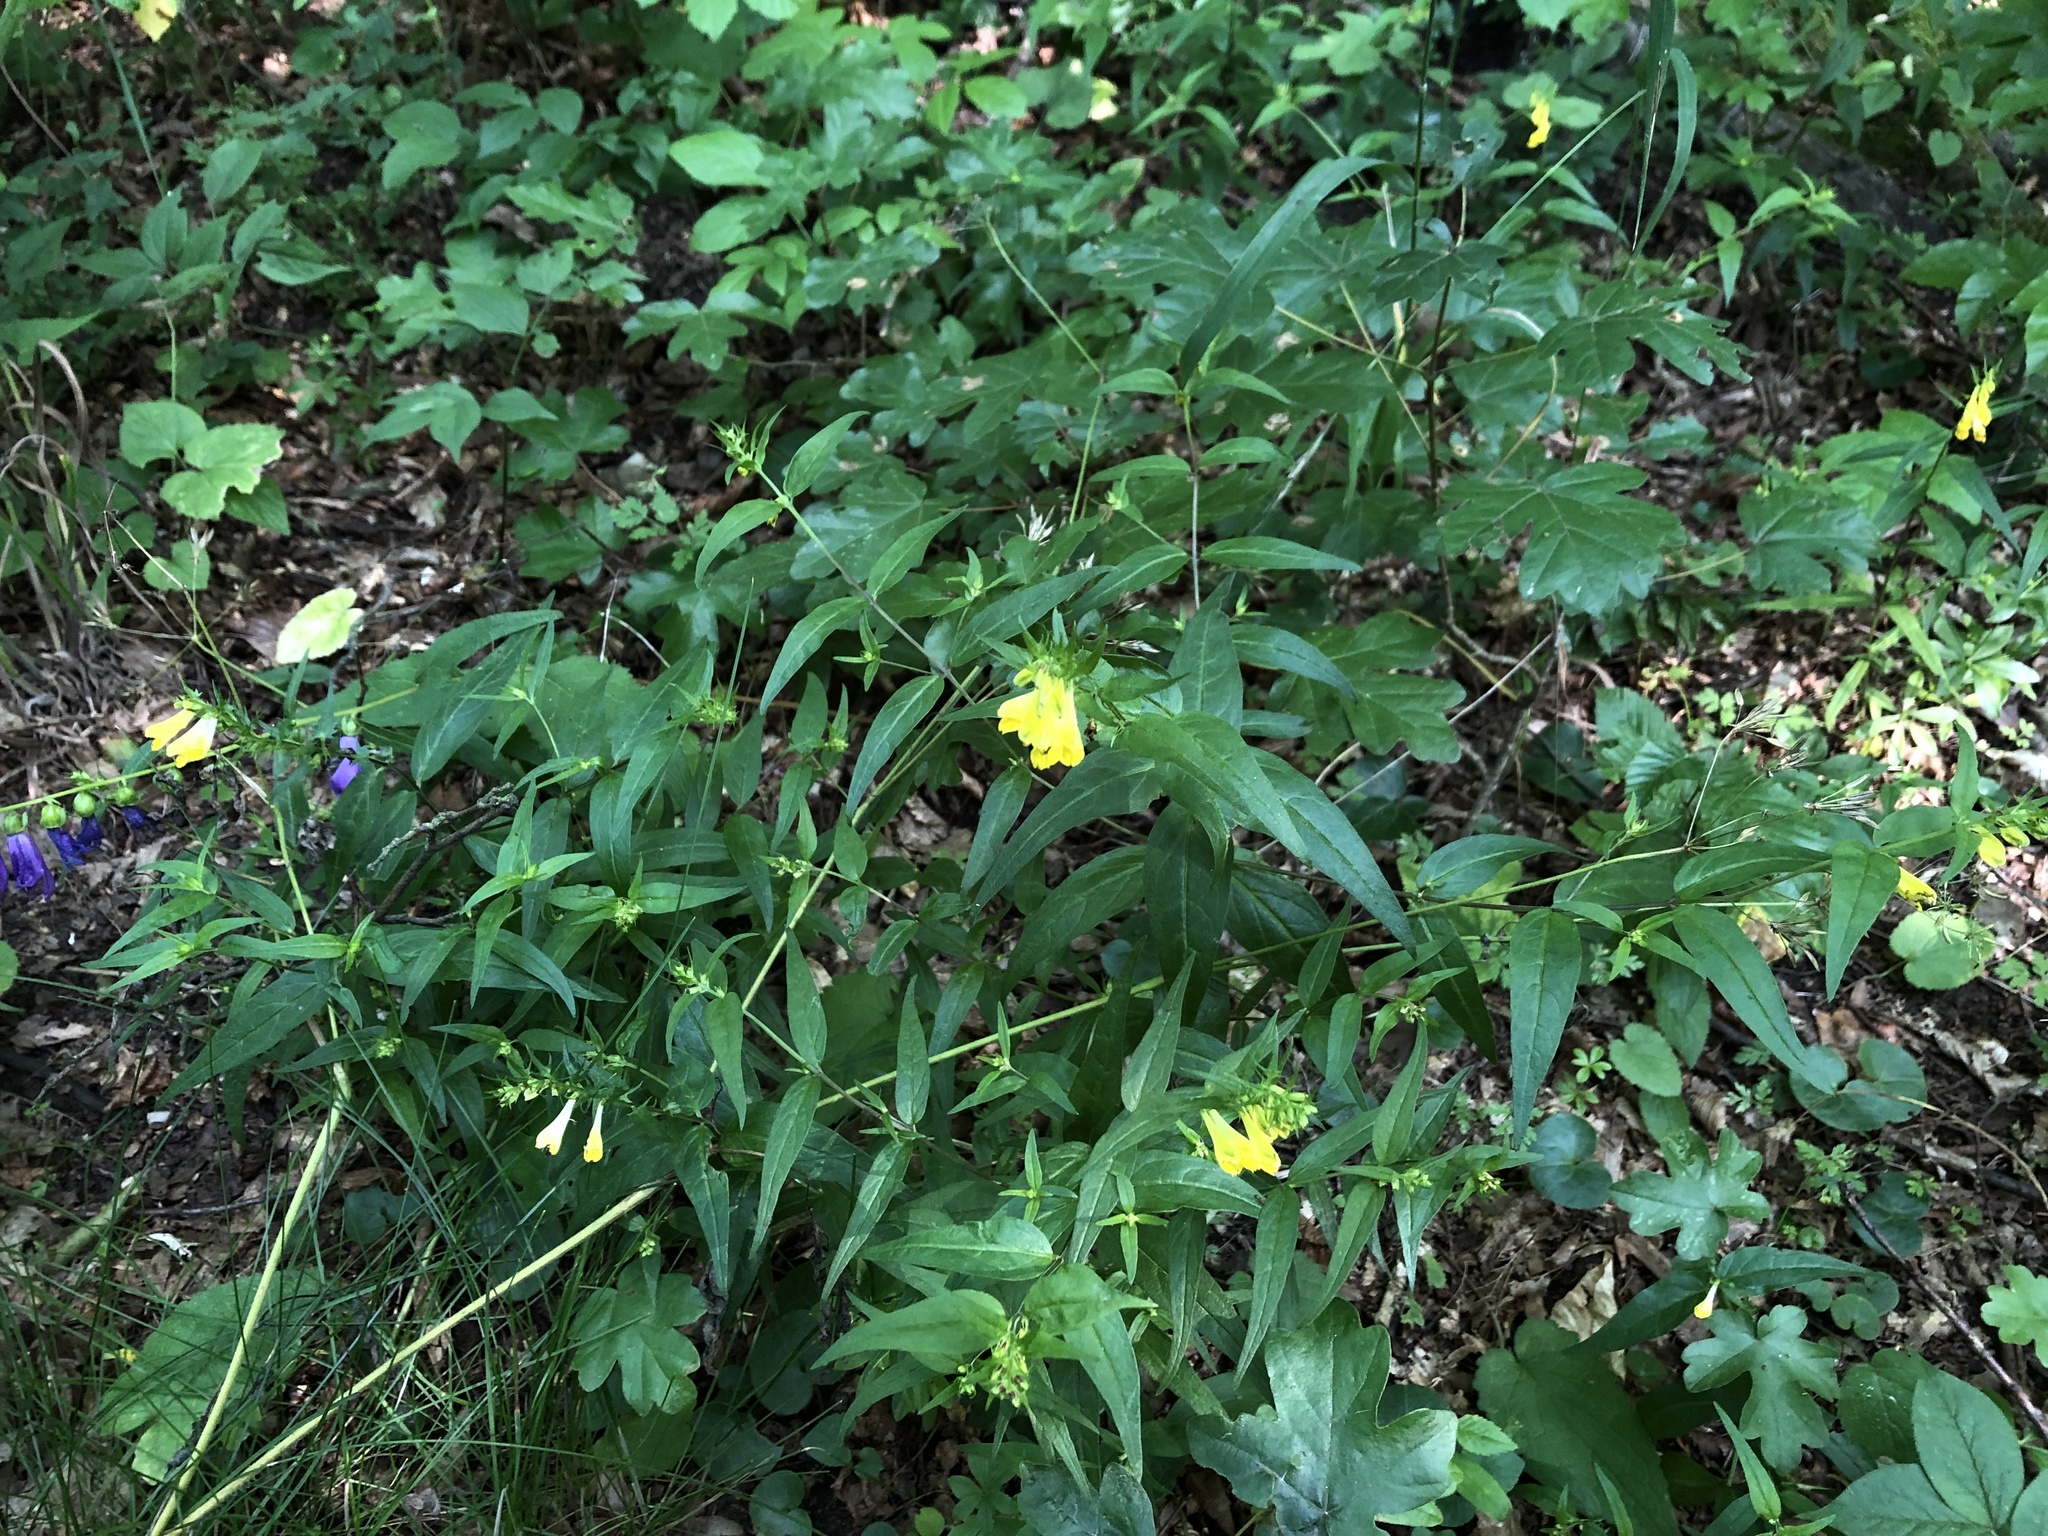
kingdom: Plantae
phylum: Tracheophyta
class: Magnoliopsida
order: Lamiales
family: Orobanchaceae
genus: Melampyrum
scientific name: Melampyrum pratense
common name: Common cow-wheat
